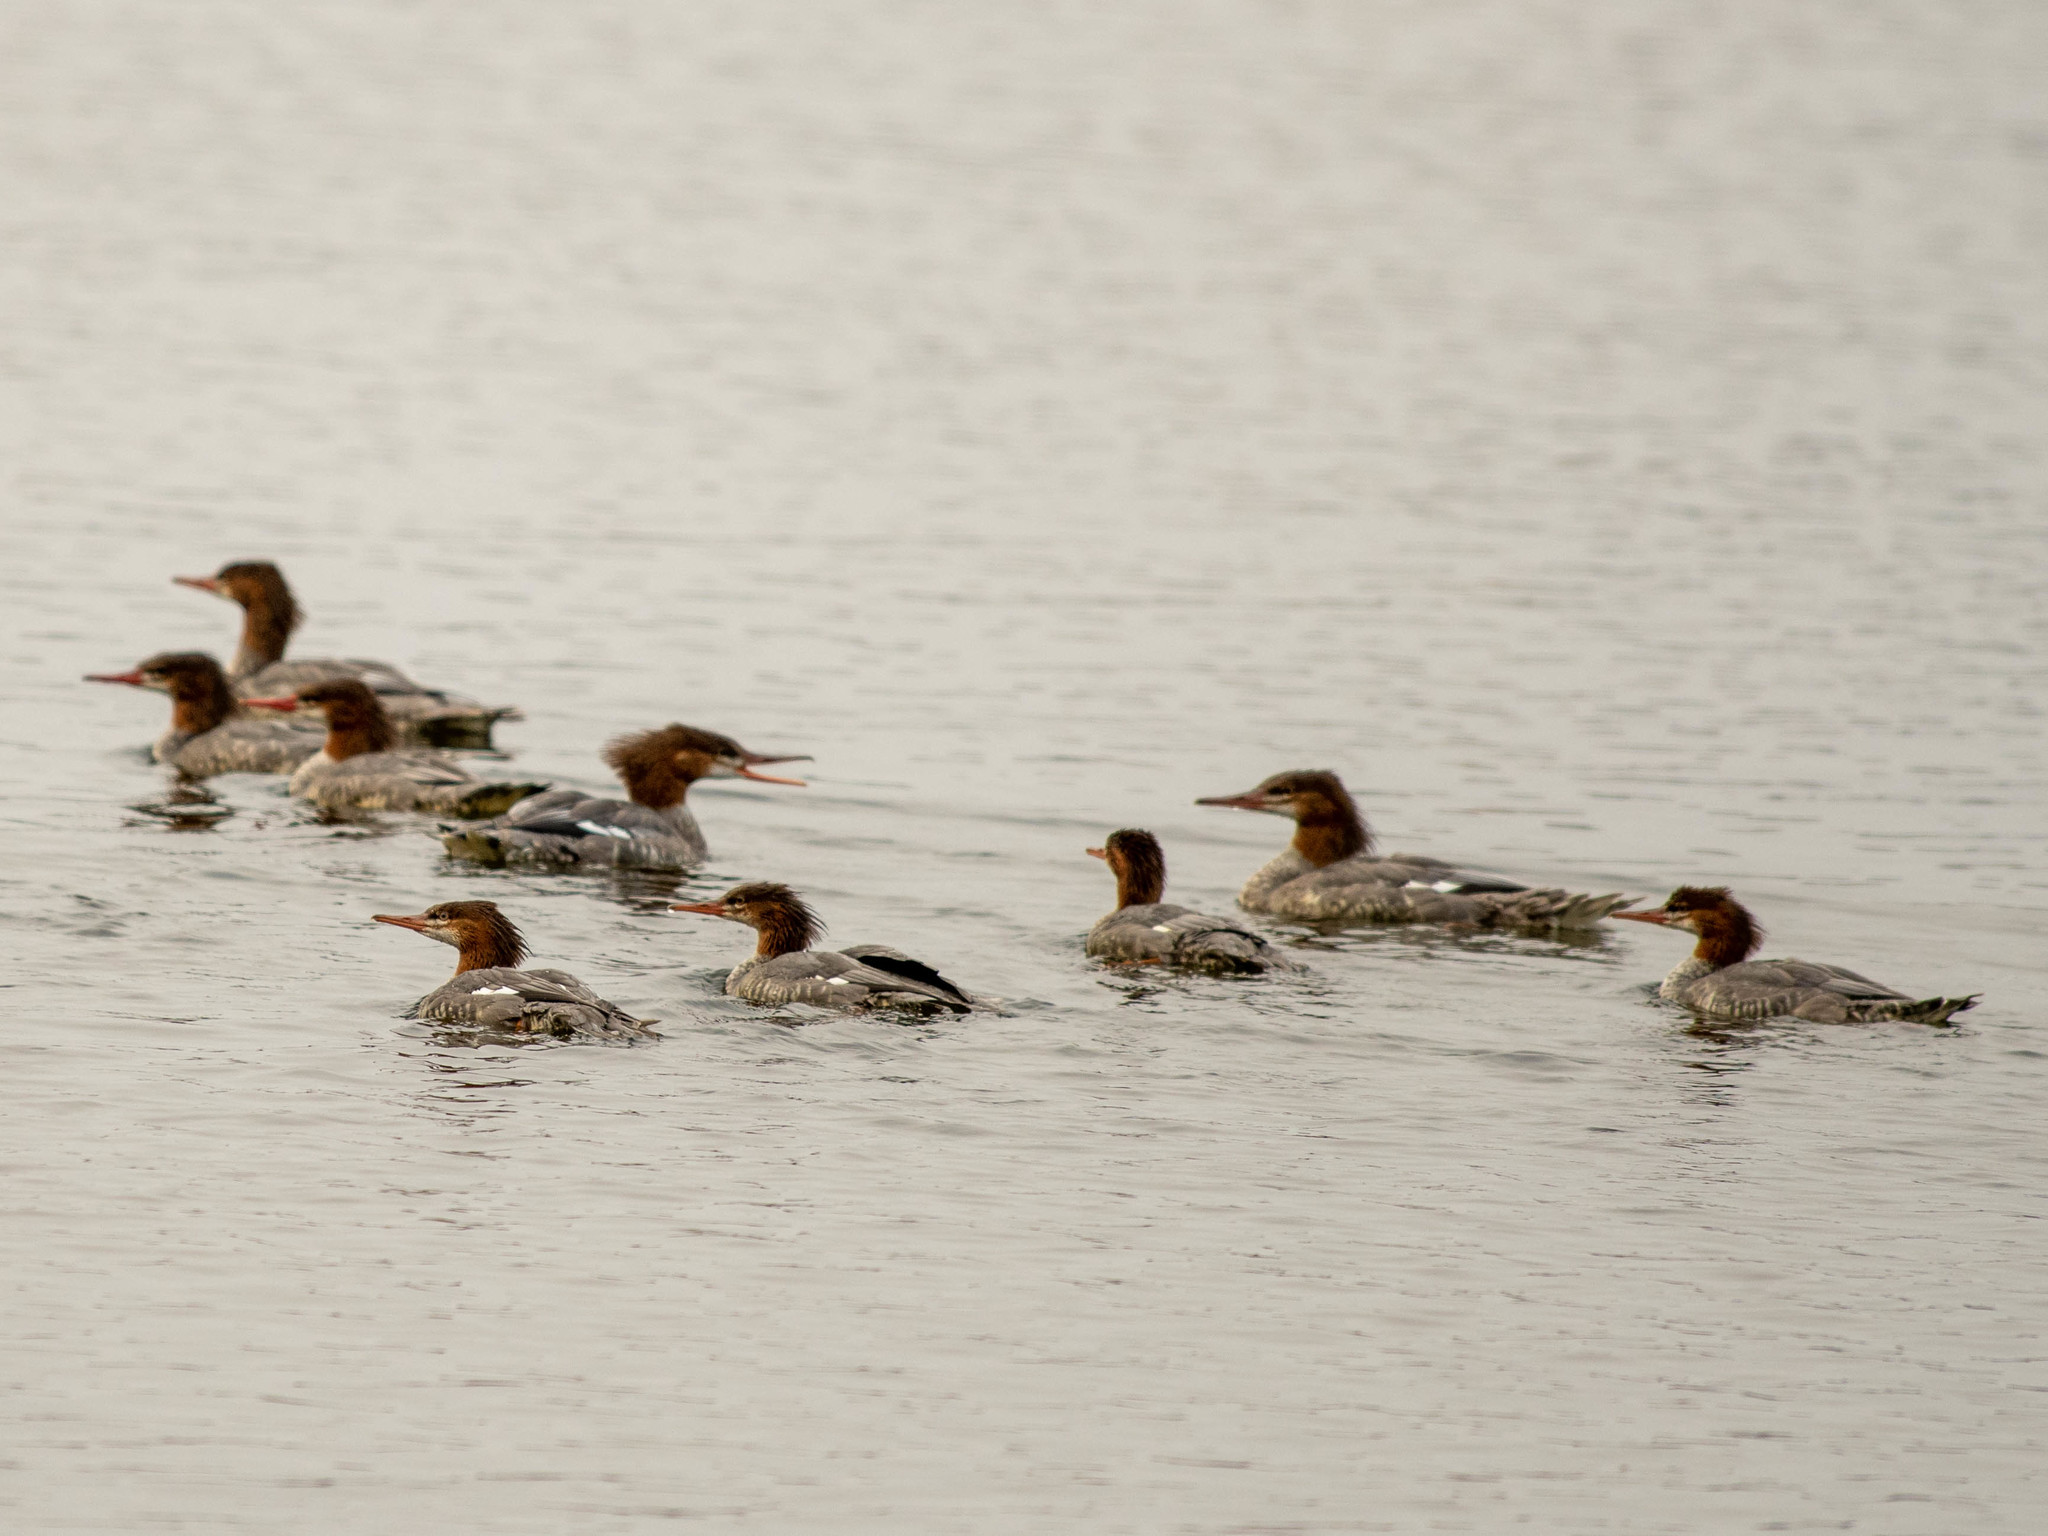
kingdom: Animalia
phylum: Chordata
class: Aves
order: Anseriformes
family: Anatidae
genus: Mergus
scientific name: Mergus merganser
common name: Common merganser
